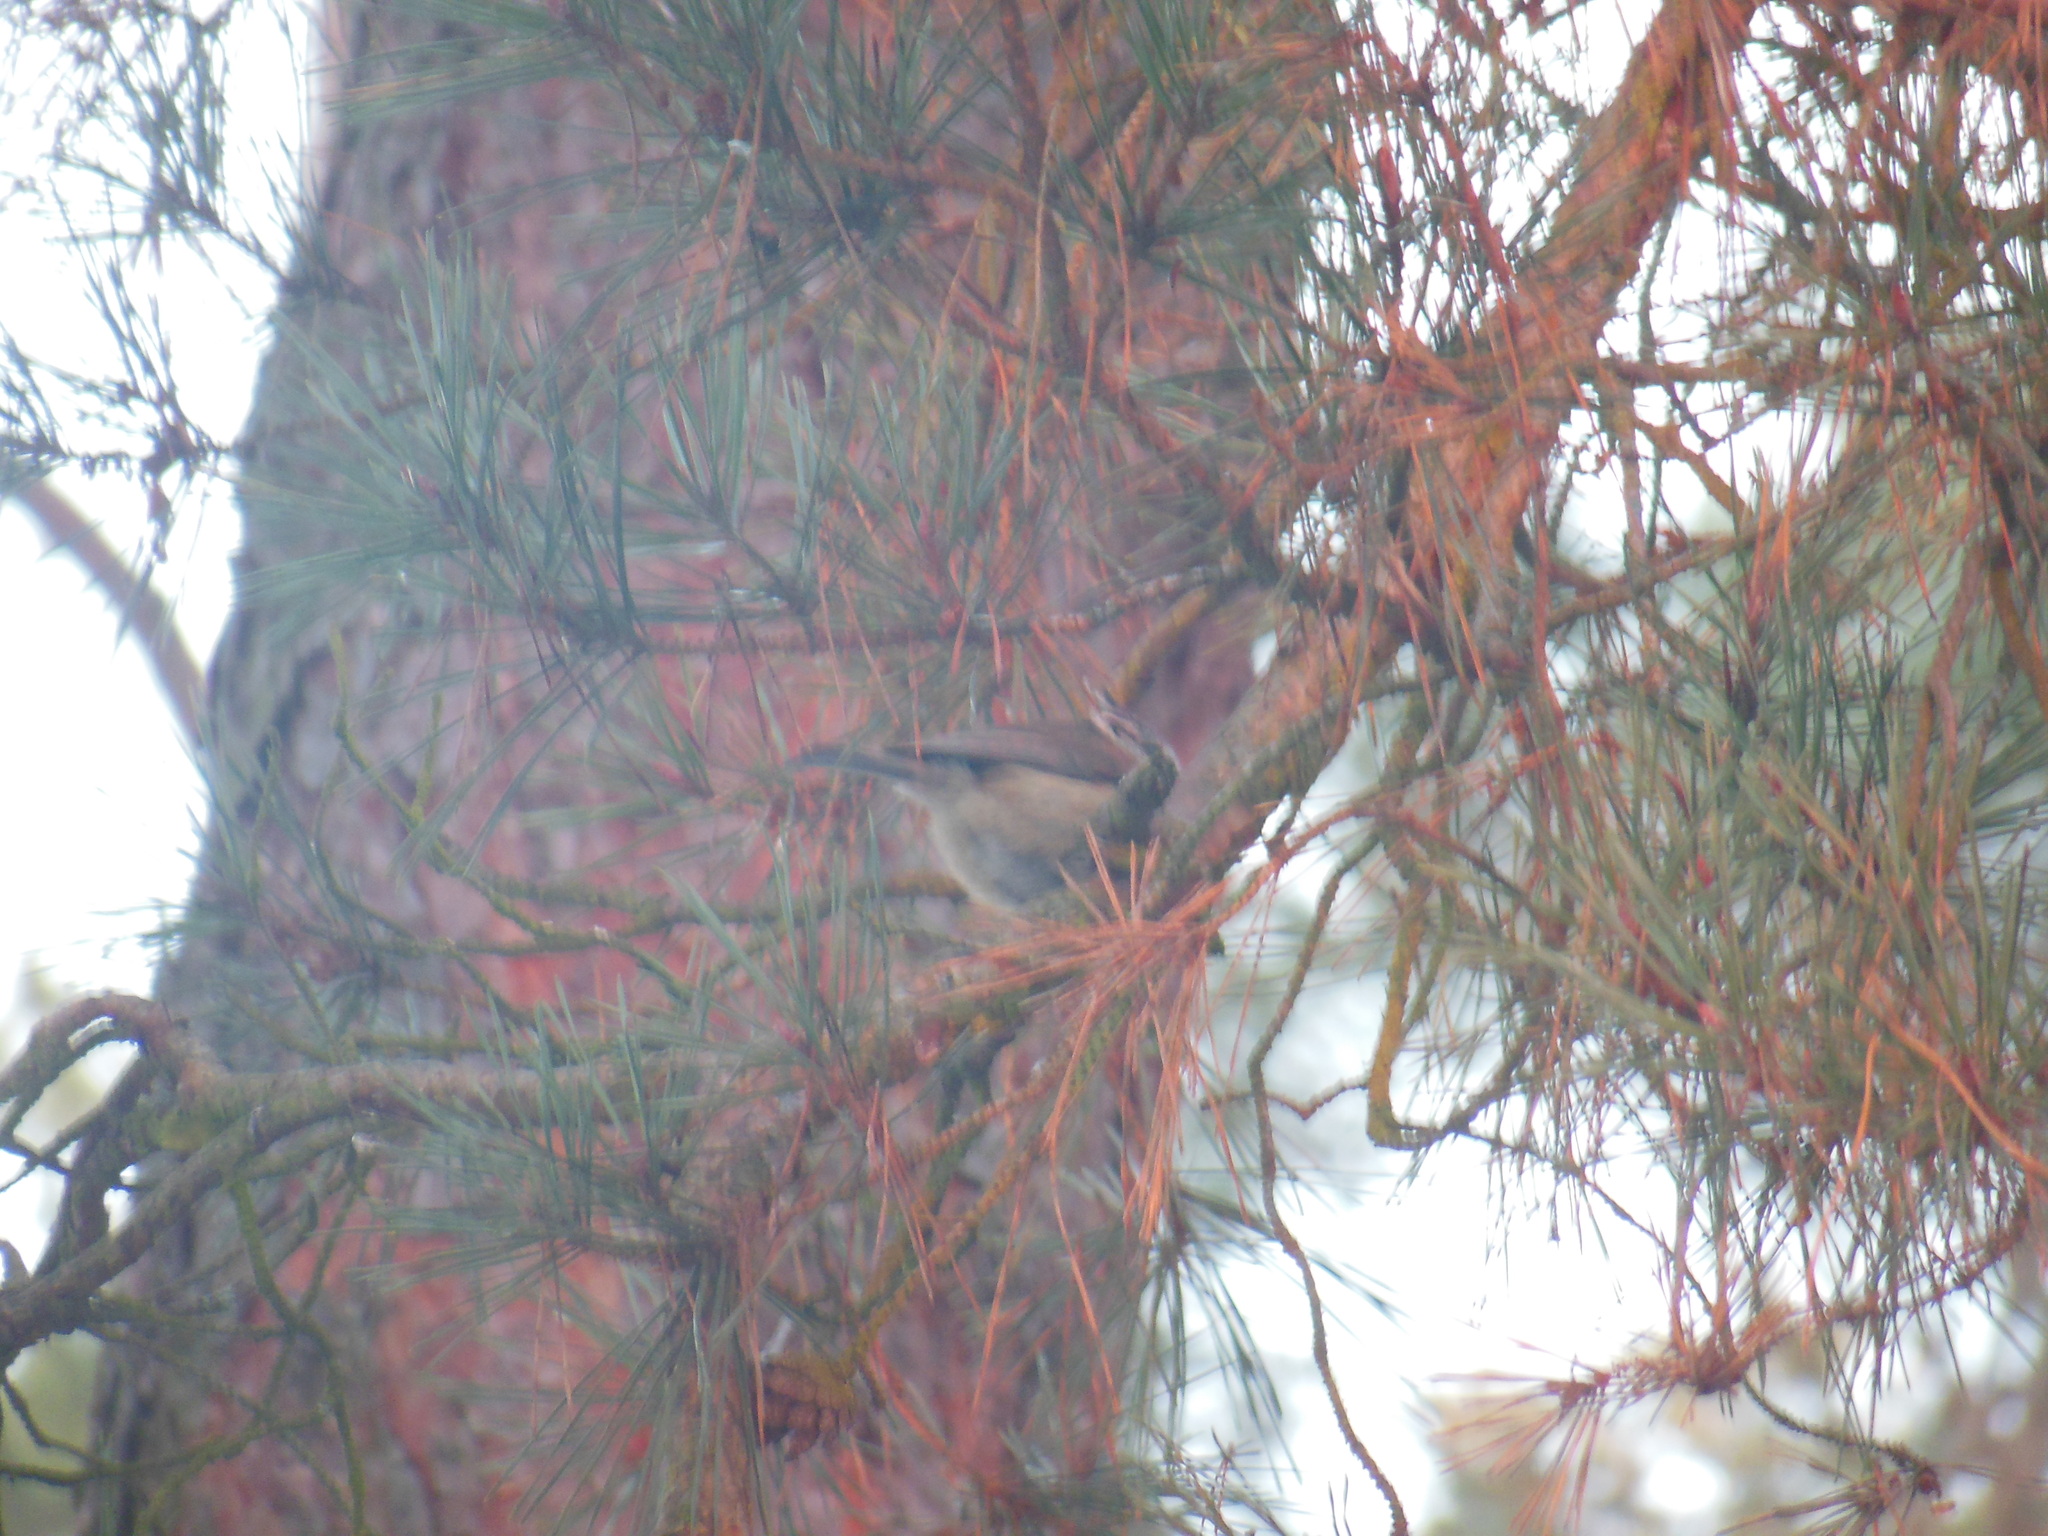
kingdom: Animalia
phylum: Chordata
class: Aves
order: Passeriformes
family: Paridae
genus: Lophophanes
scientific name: Lophophanes cristatus
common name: European crested tit
